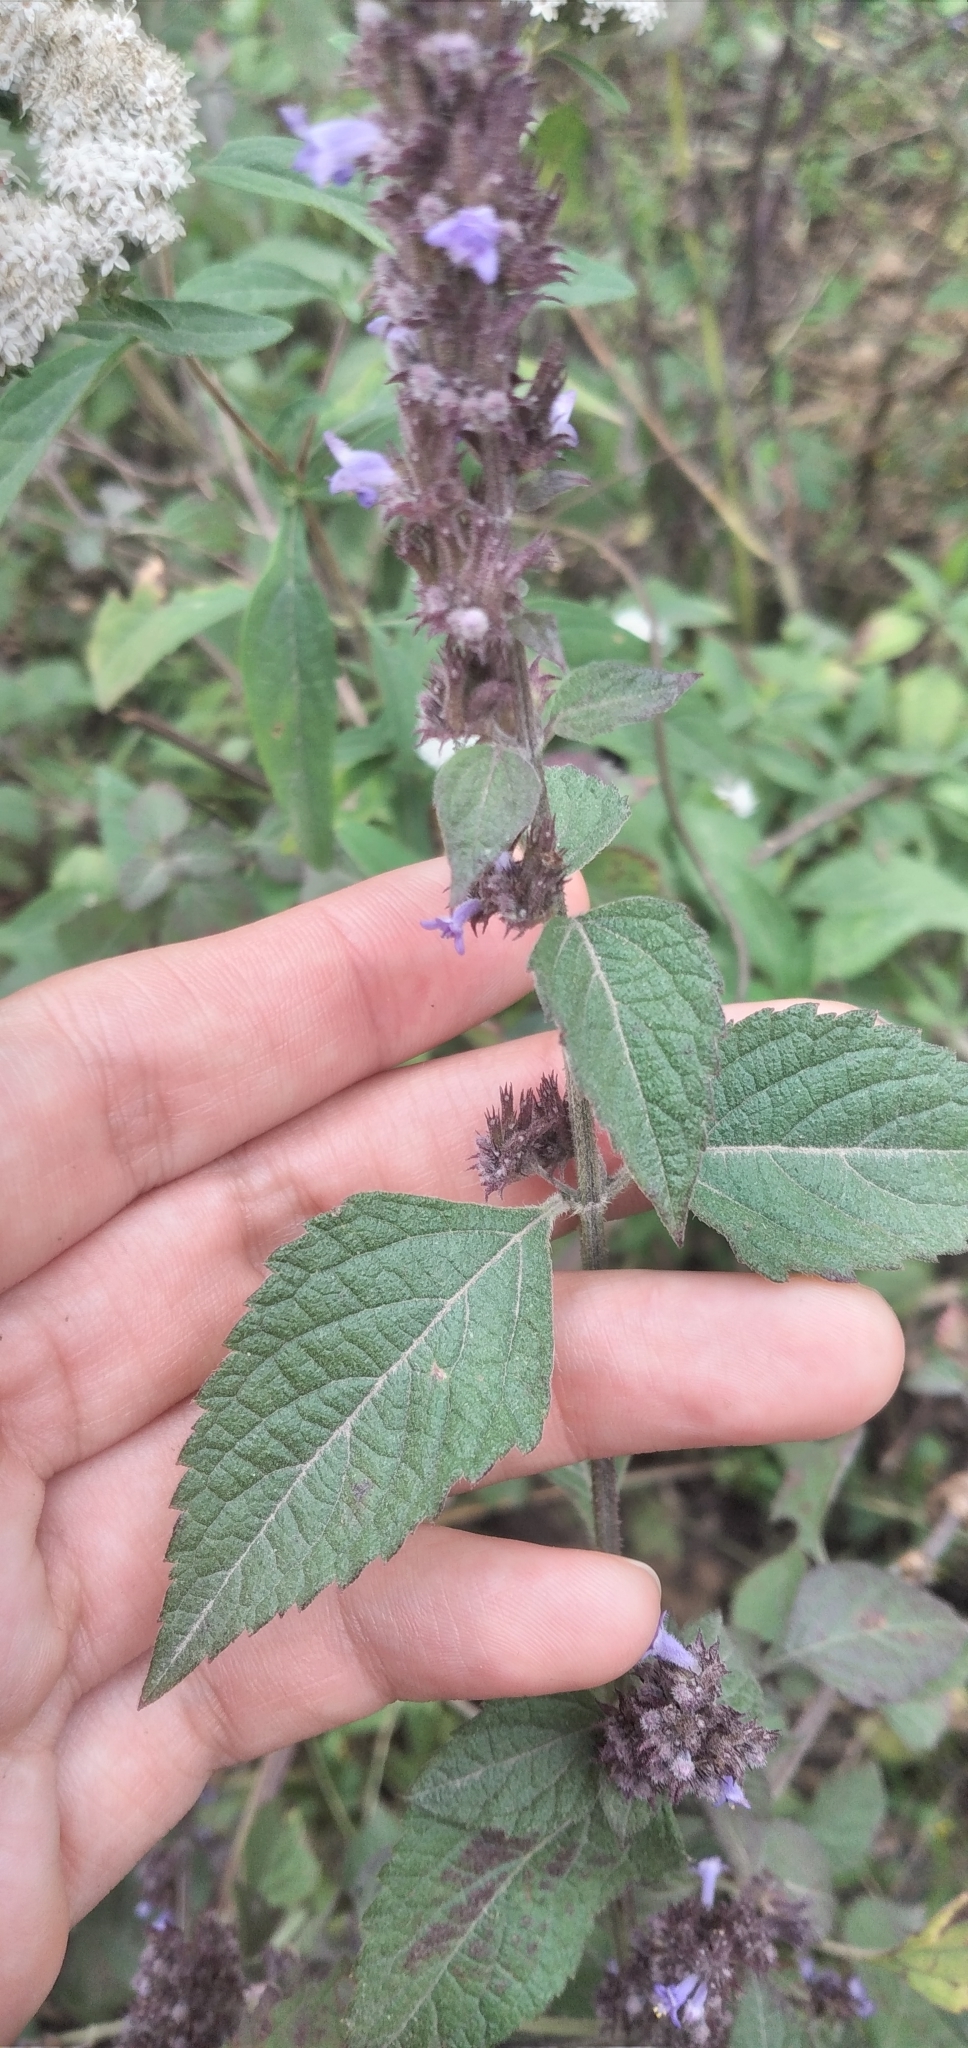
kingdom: Plantae
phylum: Tracheophyta
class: Magnoliopsida
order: Lamiales
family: Lamiaceae
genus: Cantinoa
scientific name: Cantinoa mutabilis
